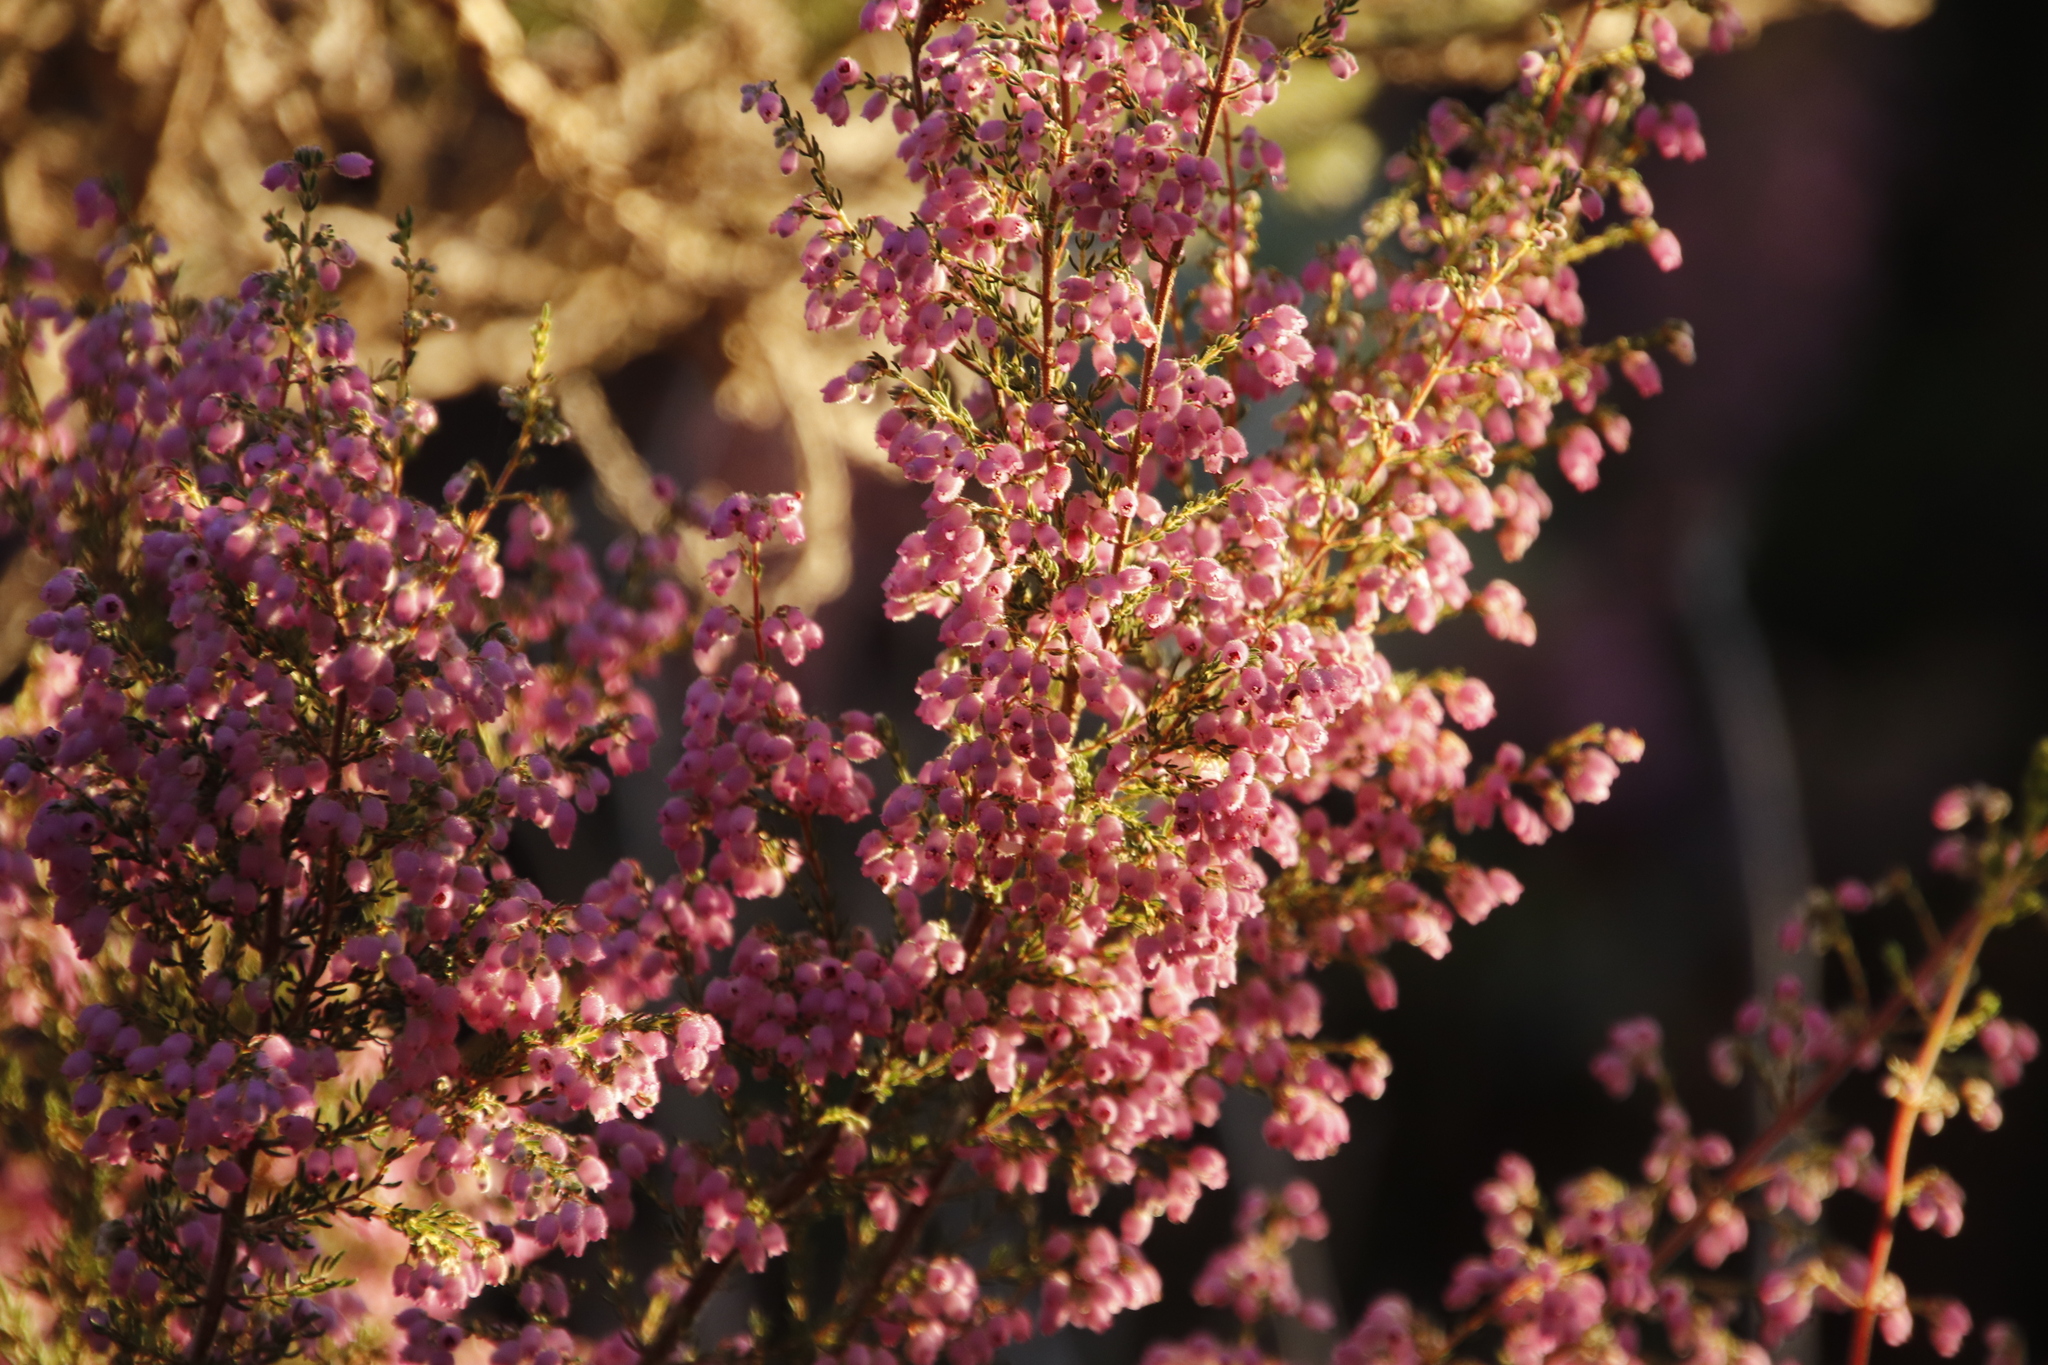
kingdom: Plantae
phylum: Tracheophyta
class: Magnoliopsida
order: Ericales
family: Ericaceae
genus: Erica
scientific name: Erica hirtiflora
